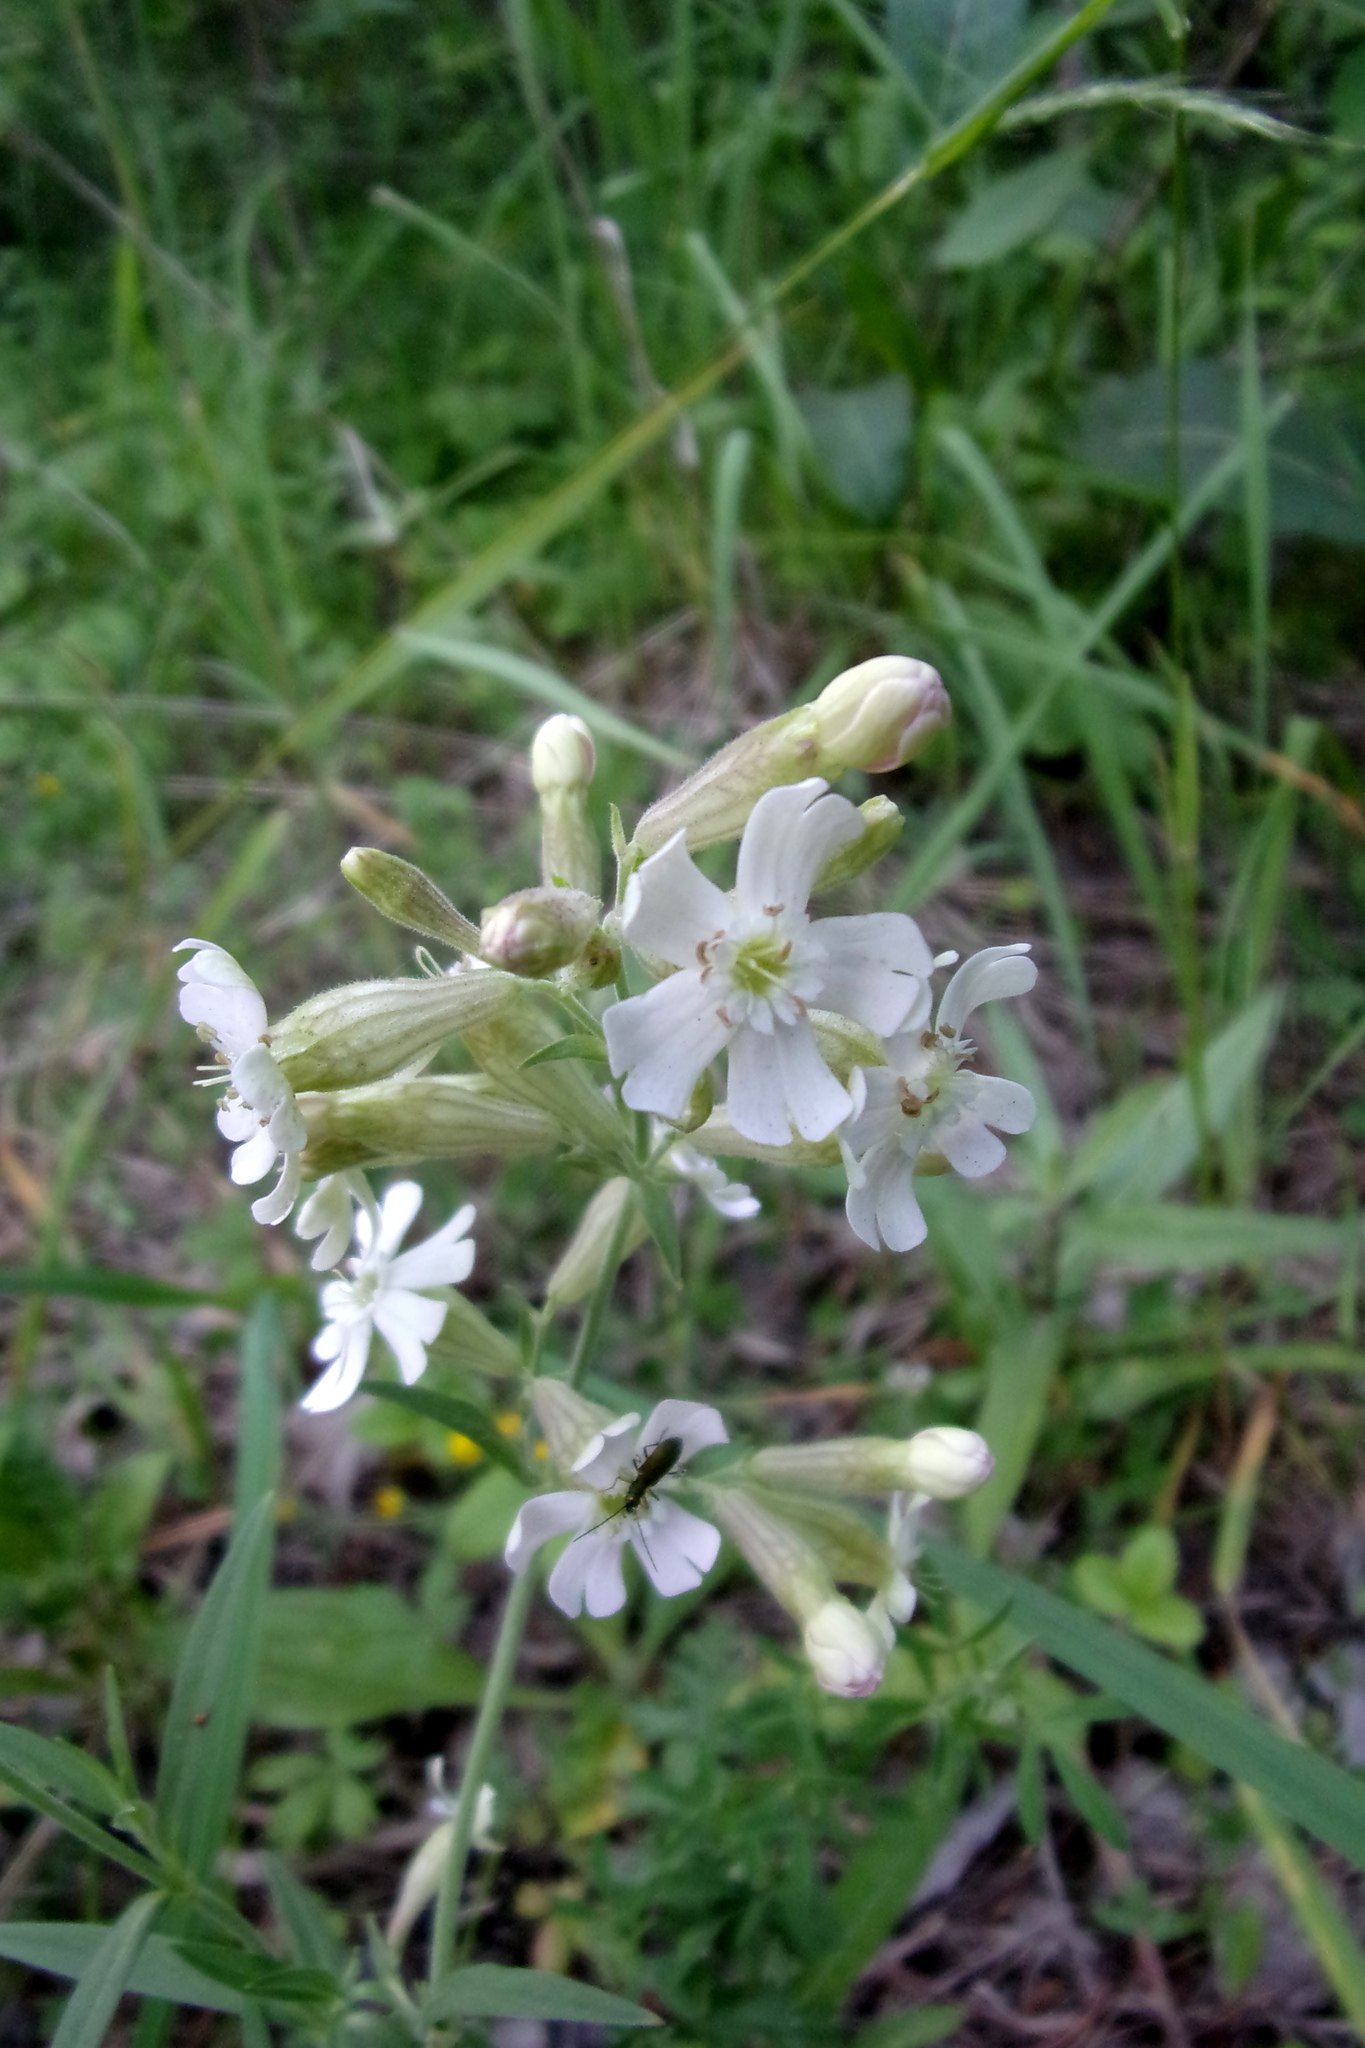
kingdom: Plantae
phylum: Tracheophyta
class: Magnoliopsida
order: Caryophyllales
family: Caryophyllaceae
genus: Silene
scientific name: Silene amoena
